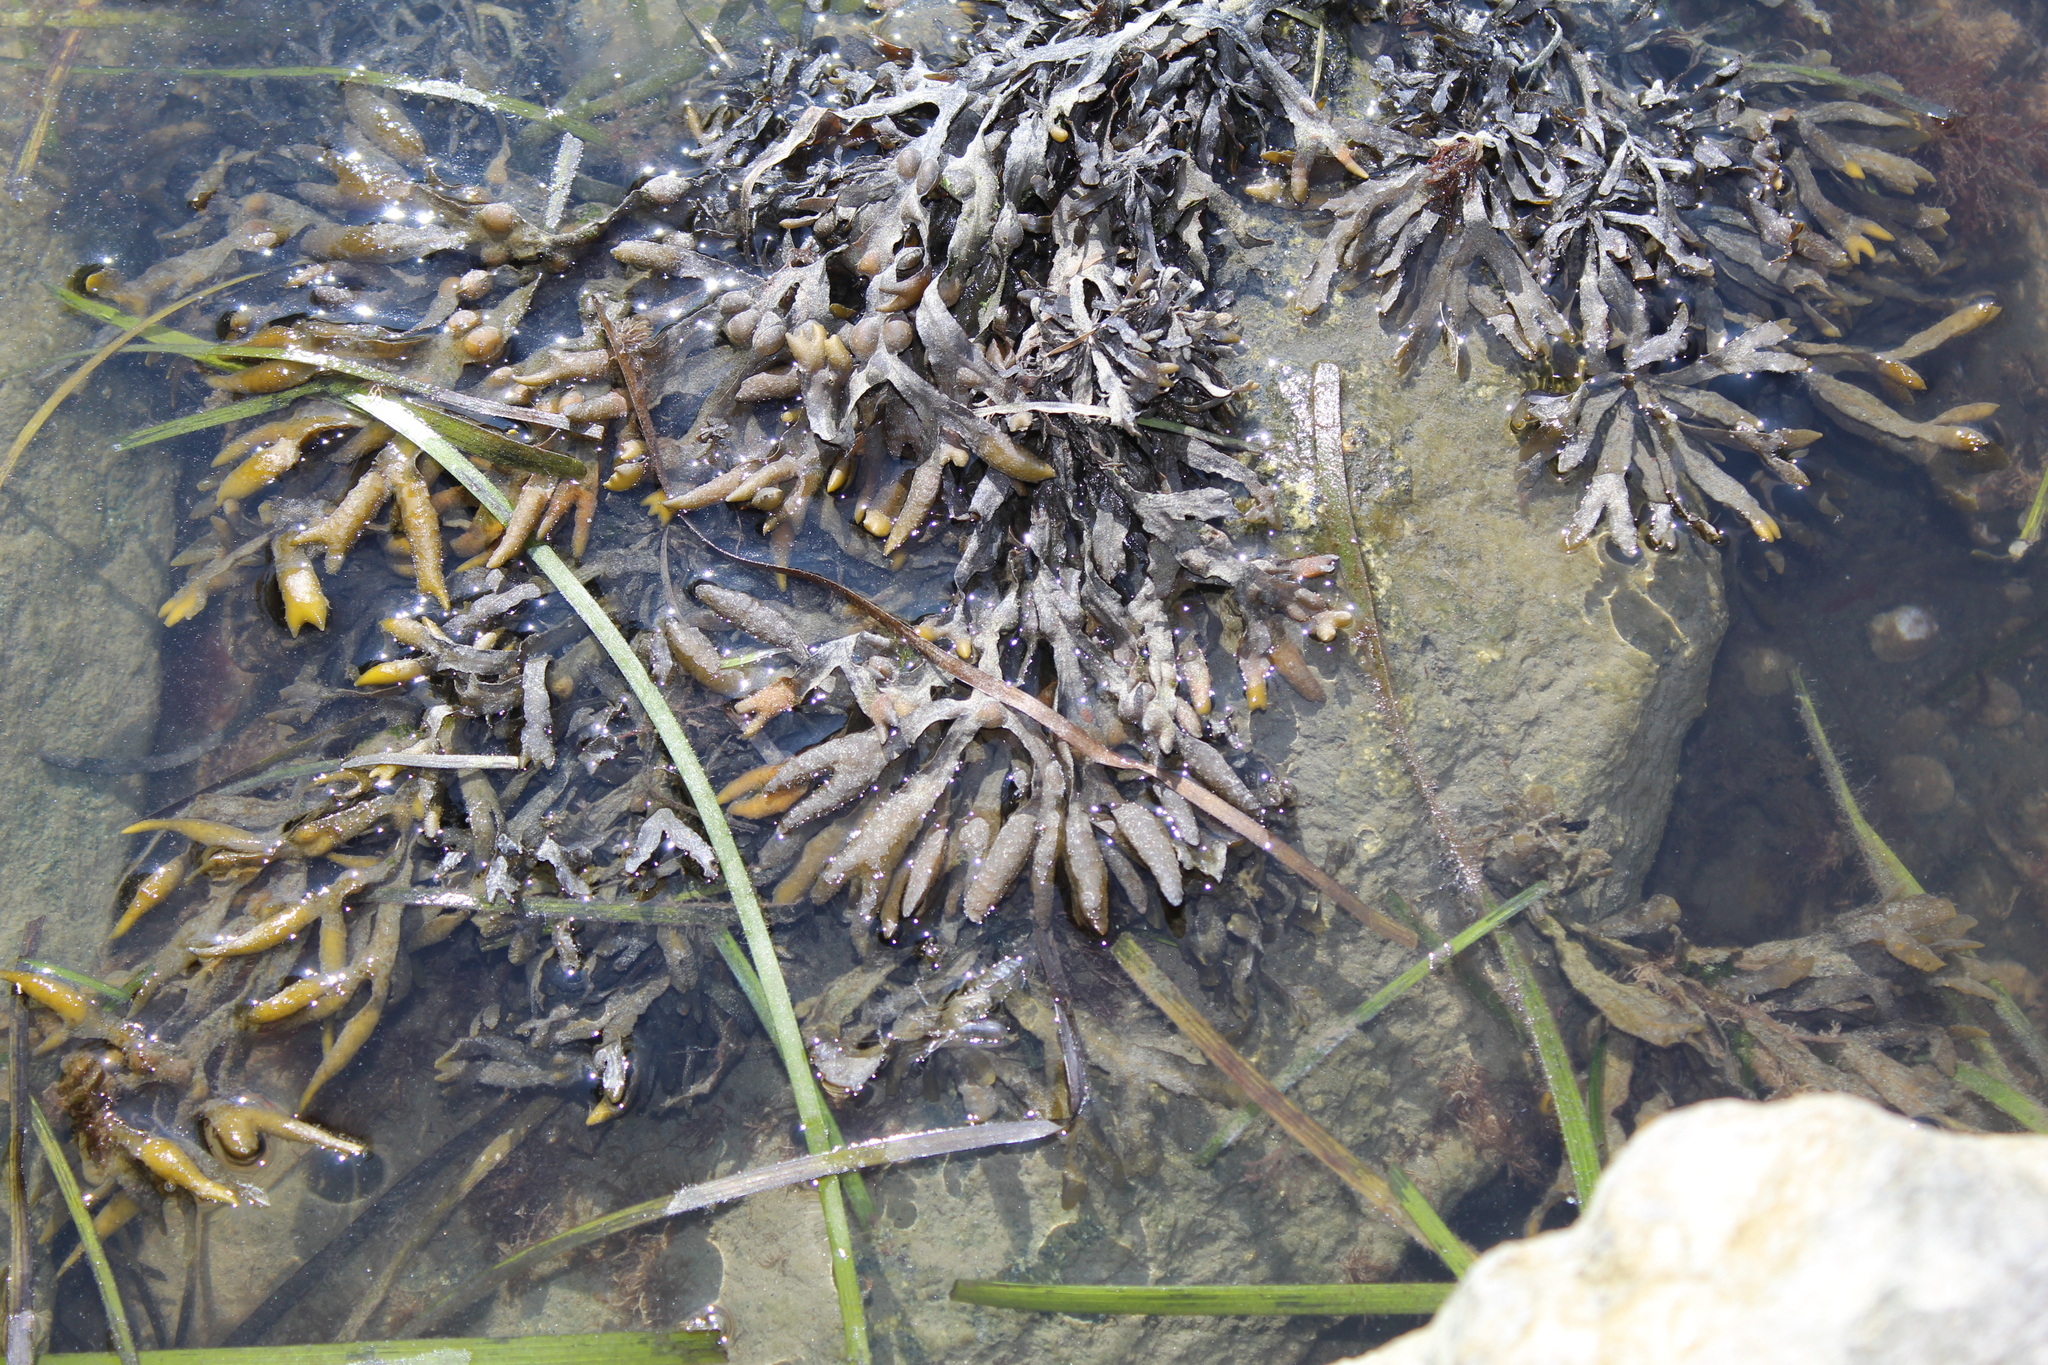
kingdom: Chromista
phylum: Ochrophyta
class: Phaeophyceae
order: Fucales
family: Fucaceae
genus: Fucus
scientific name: Fucus vesiculosus
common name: Bladder wrack
